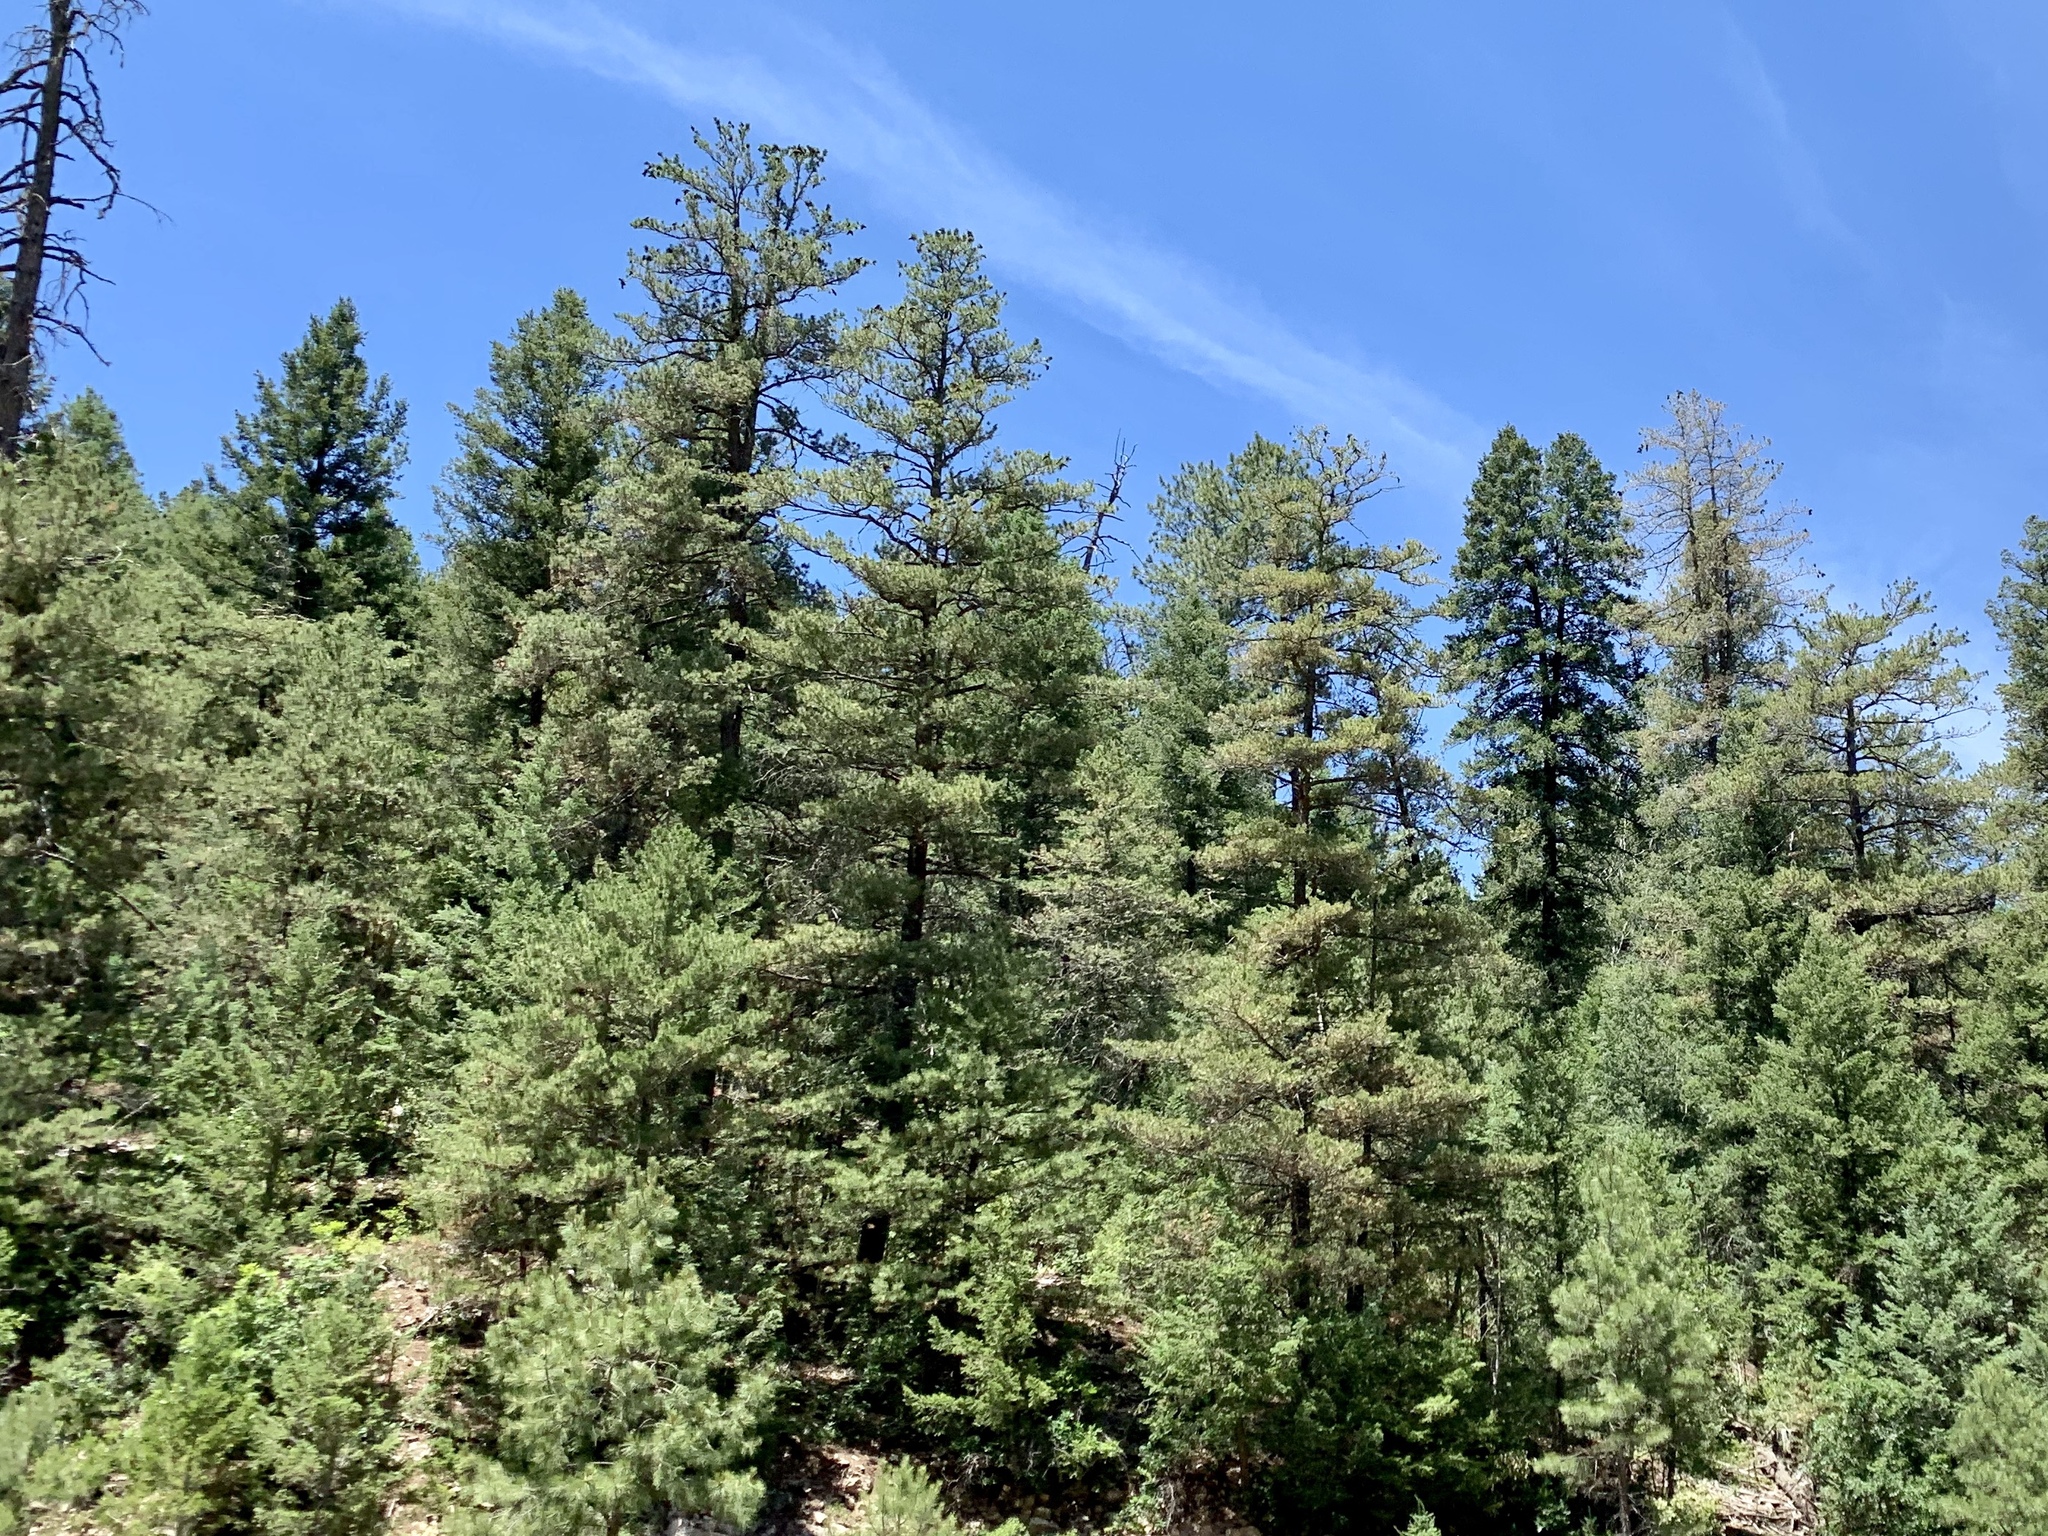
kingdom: Plantae
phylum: Tracheophyta
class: Pinopsida
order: Pinales
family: Pinaceae
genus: Pinus
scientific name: Pinus ponderosa
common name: Western yellow-pine
